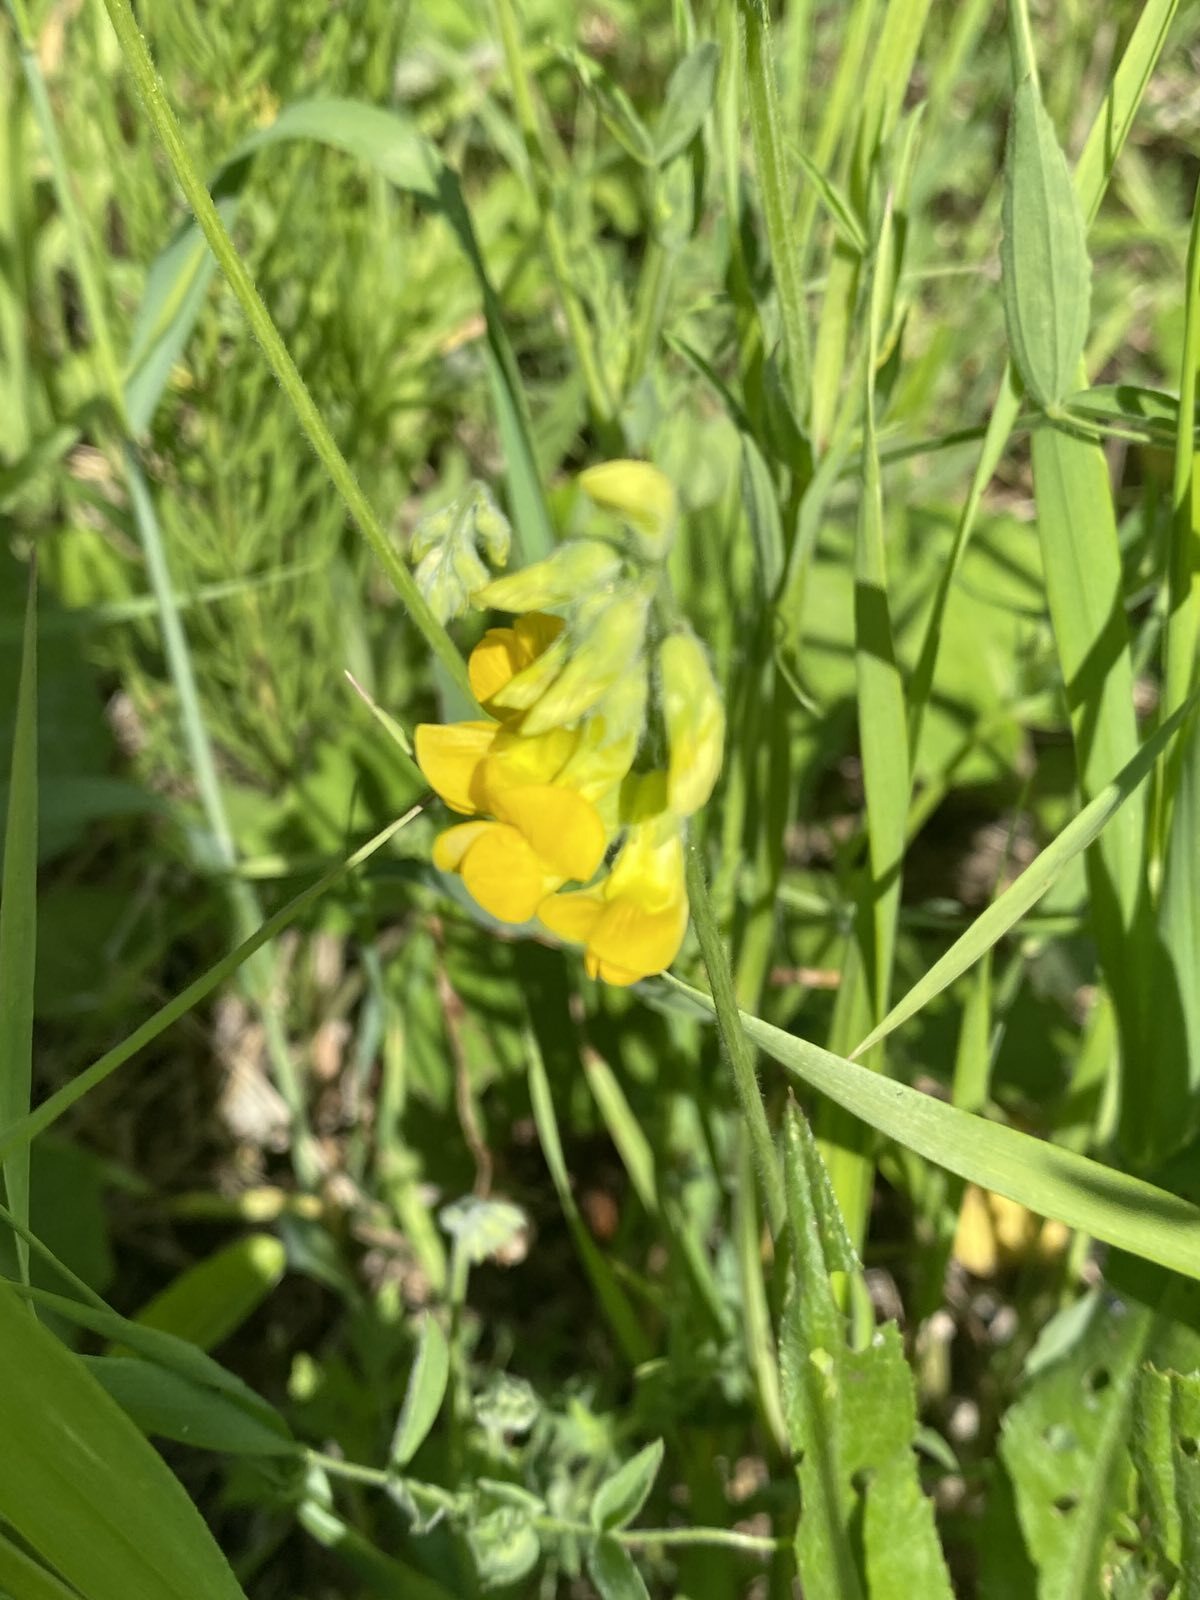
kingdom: Plantae
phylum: Tracheophyta
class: Magnoliopsida
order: Fabales
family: Fabaceae
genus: Lathyrus
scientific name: Lathyrus pratensis
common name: Meadow vetchling
